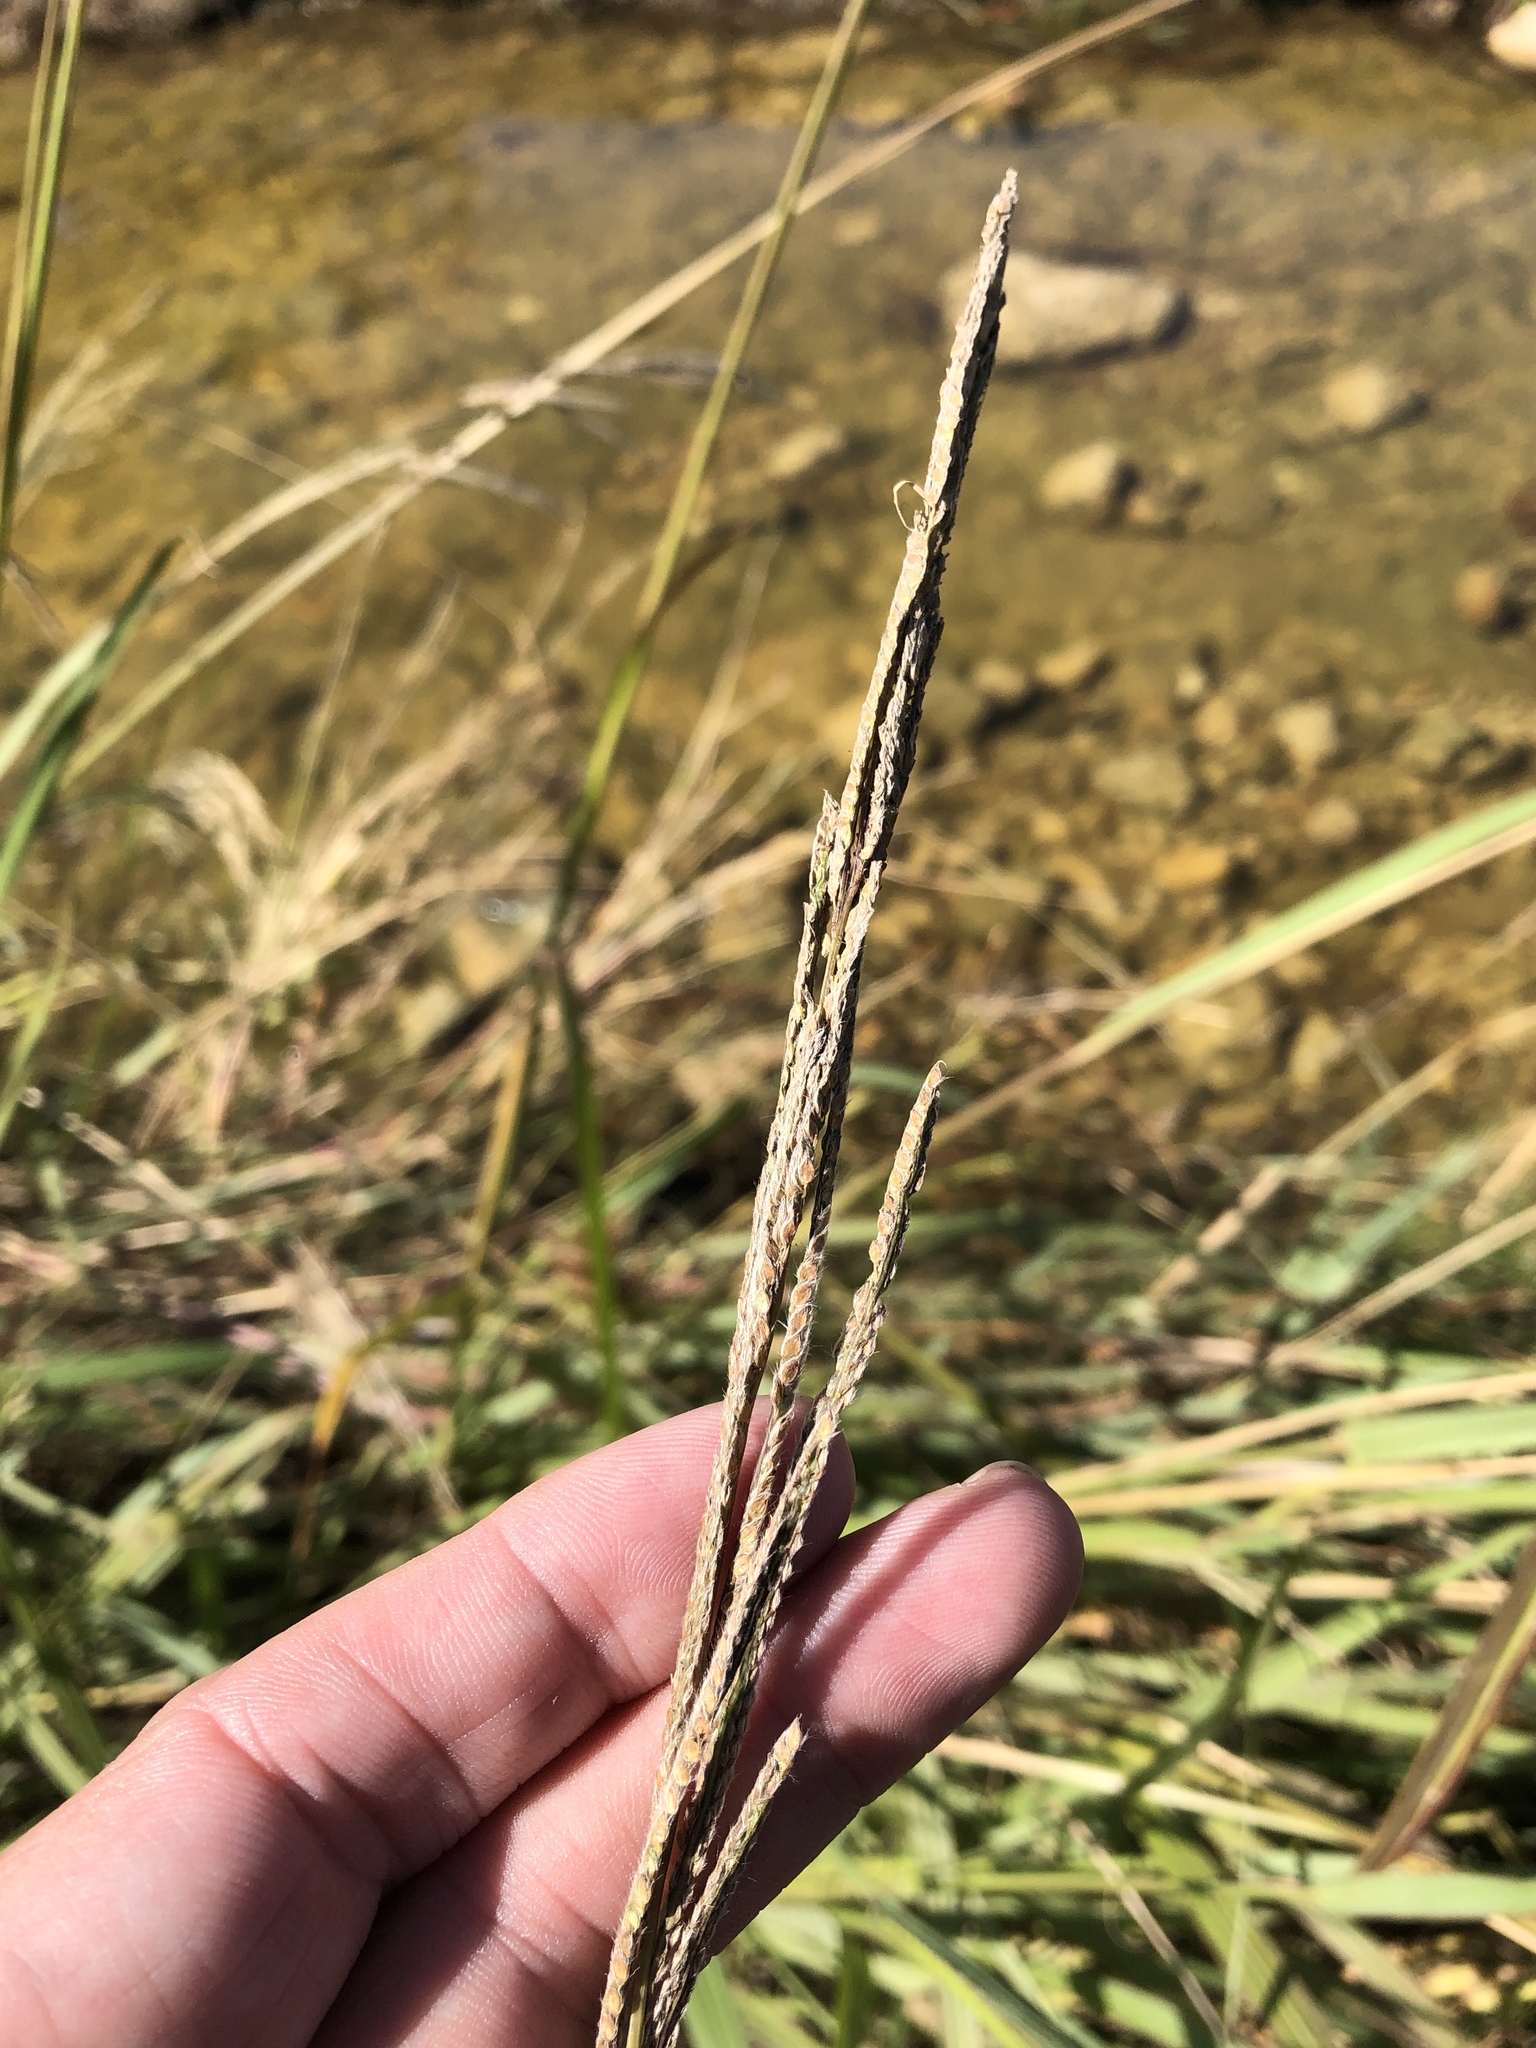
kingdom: Plantae
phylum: Tracheophyta
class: Liliopsida
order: Poales
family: Poaceae
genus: Paspalum
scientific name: Paspalum urvillei
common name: Vasey's grass
